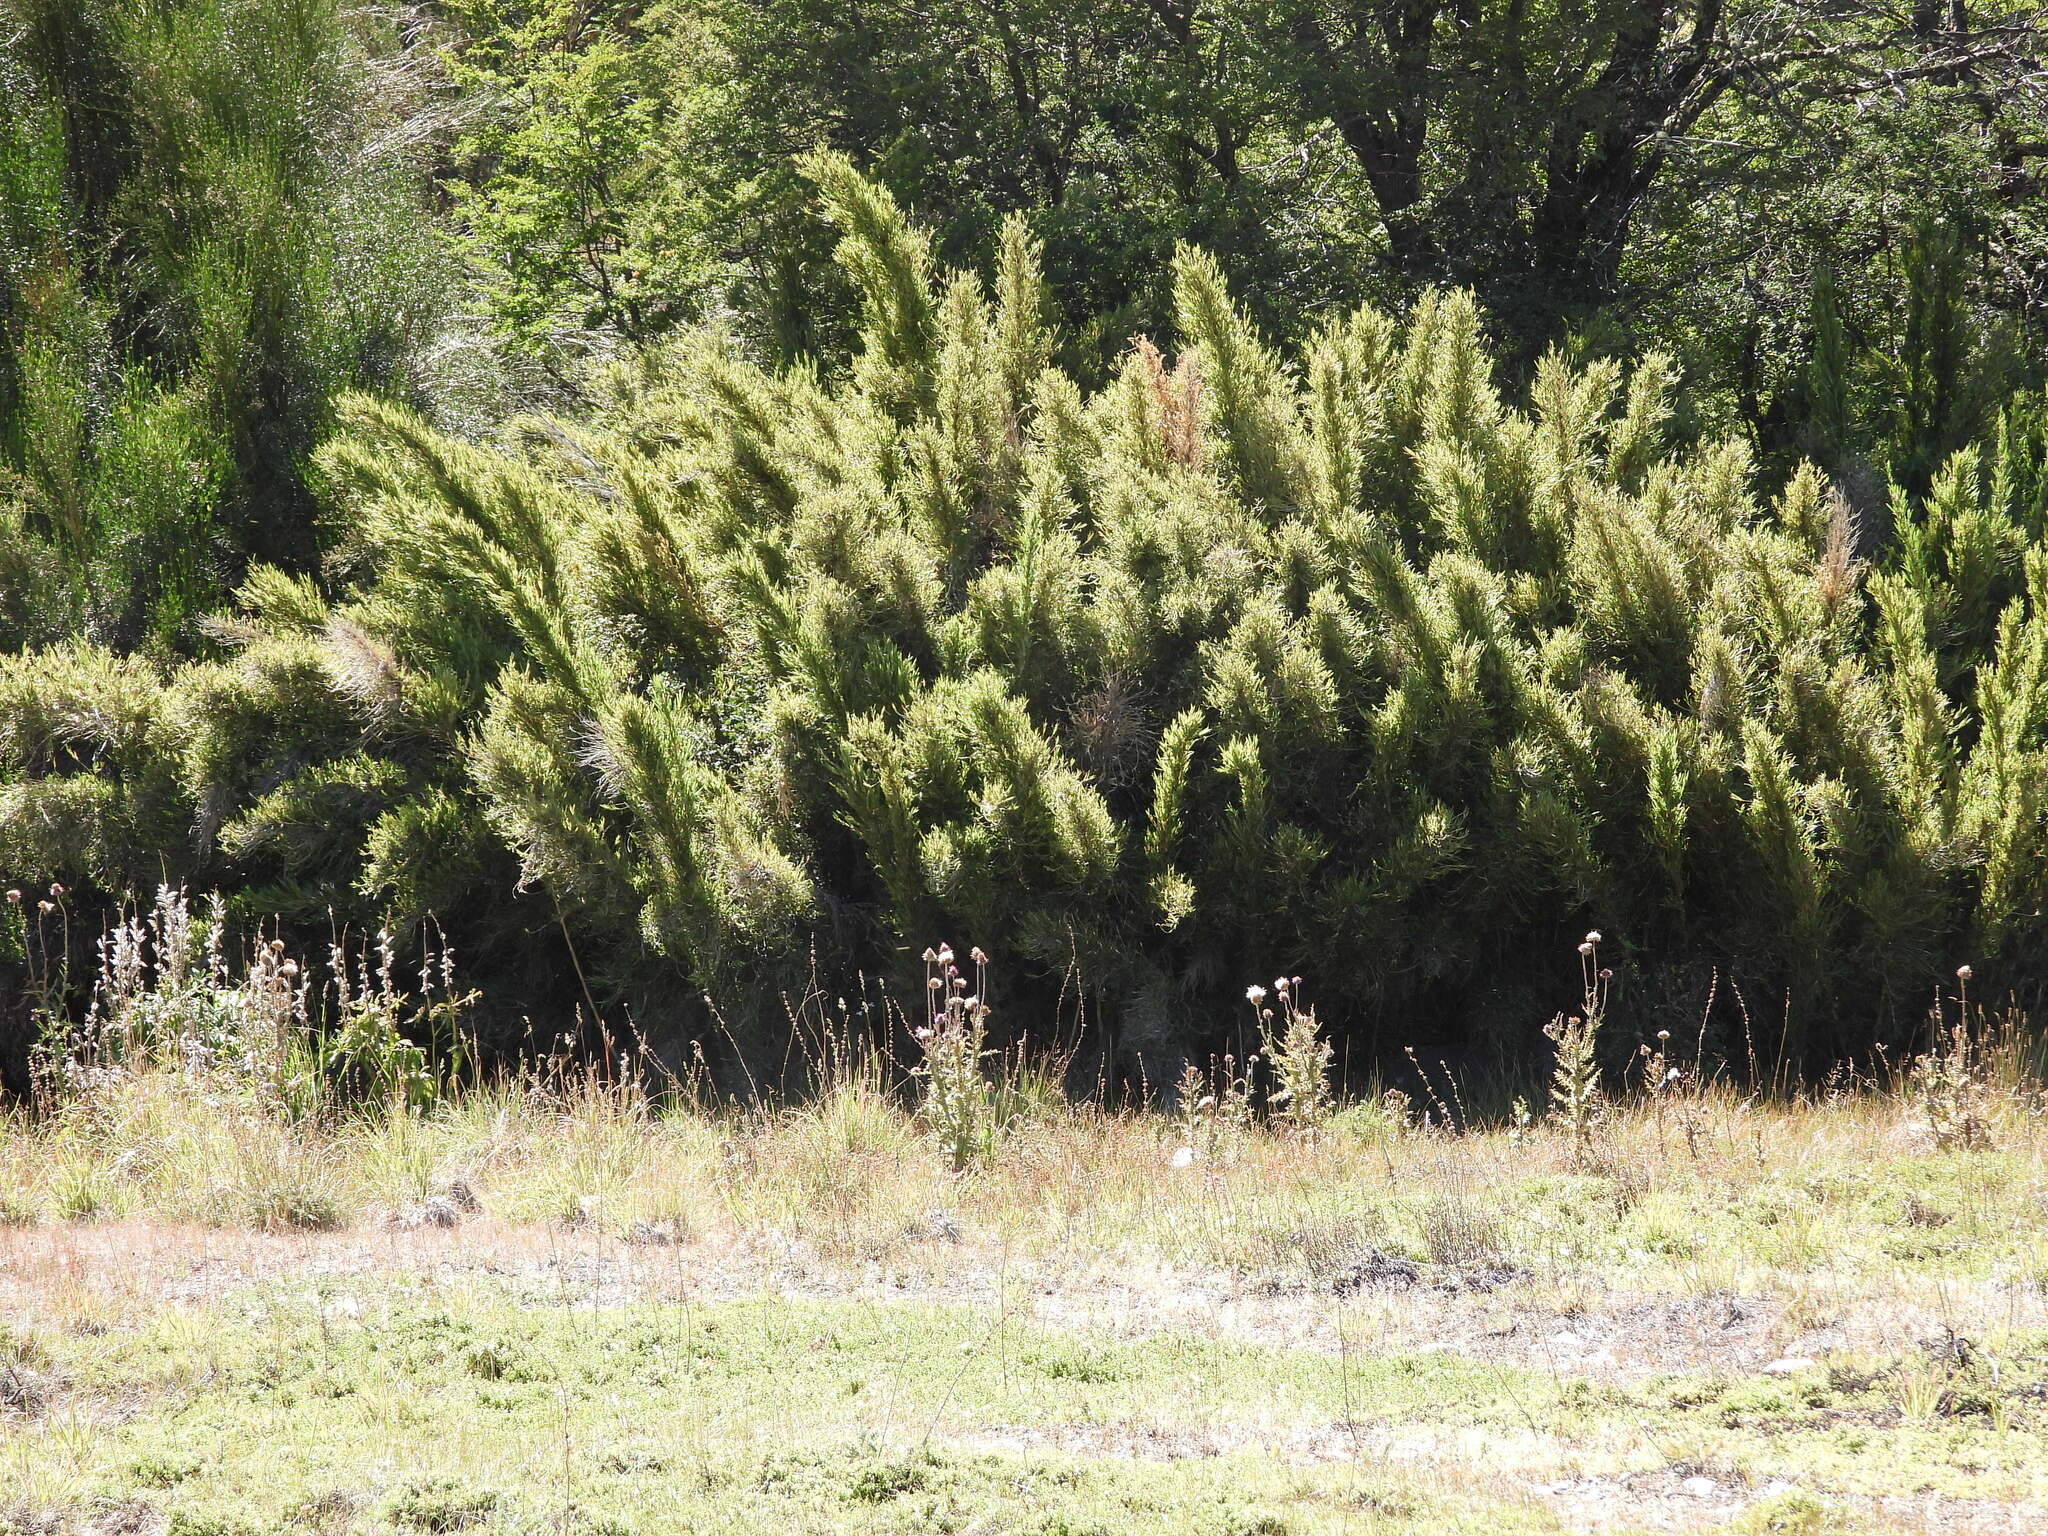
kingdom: Plantae
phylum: Tracheophyta
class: Liliopsida
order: Poales
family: Poaceae
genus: Chusquea
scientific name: Chusquea culeou
